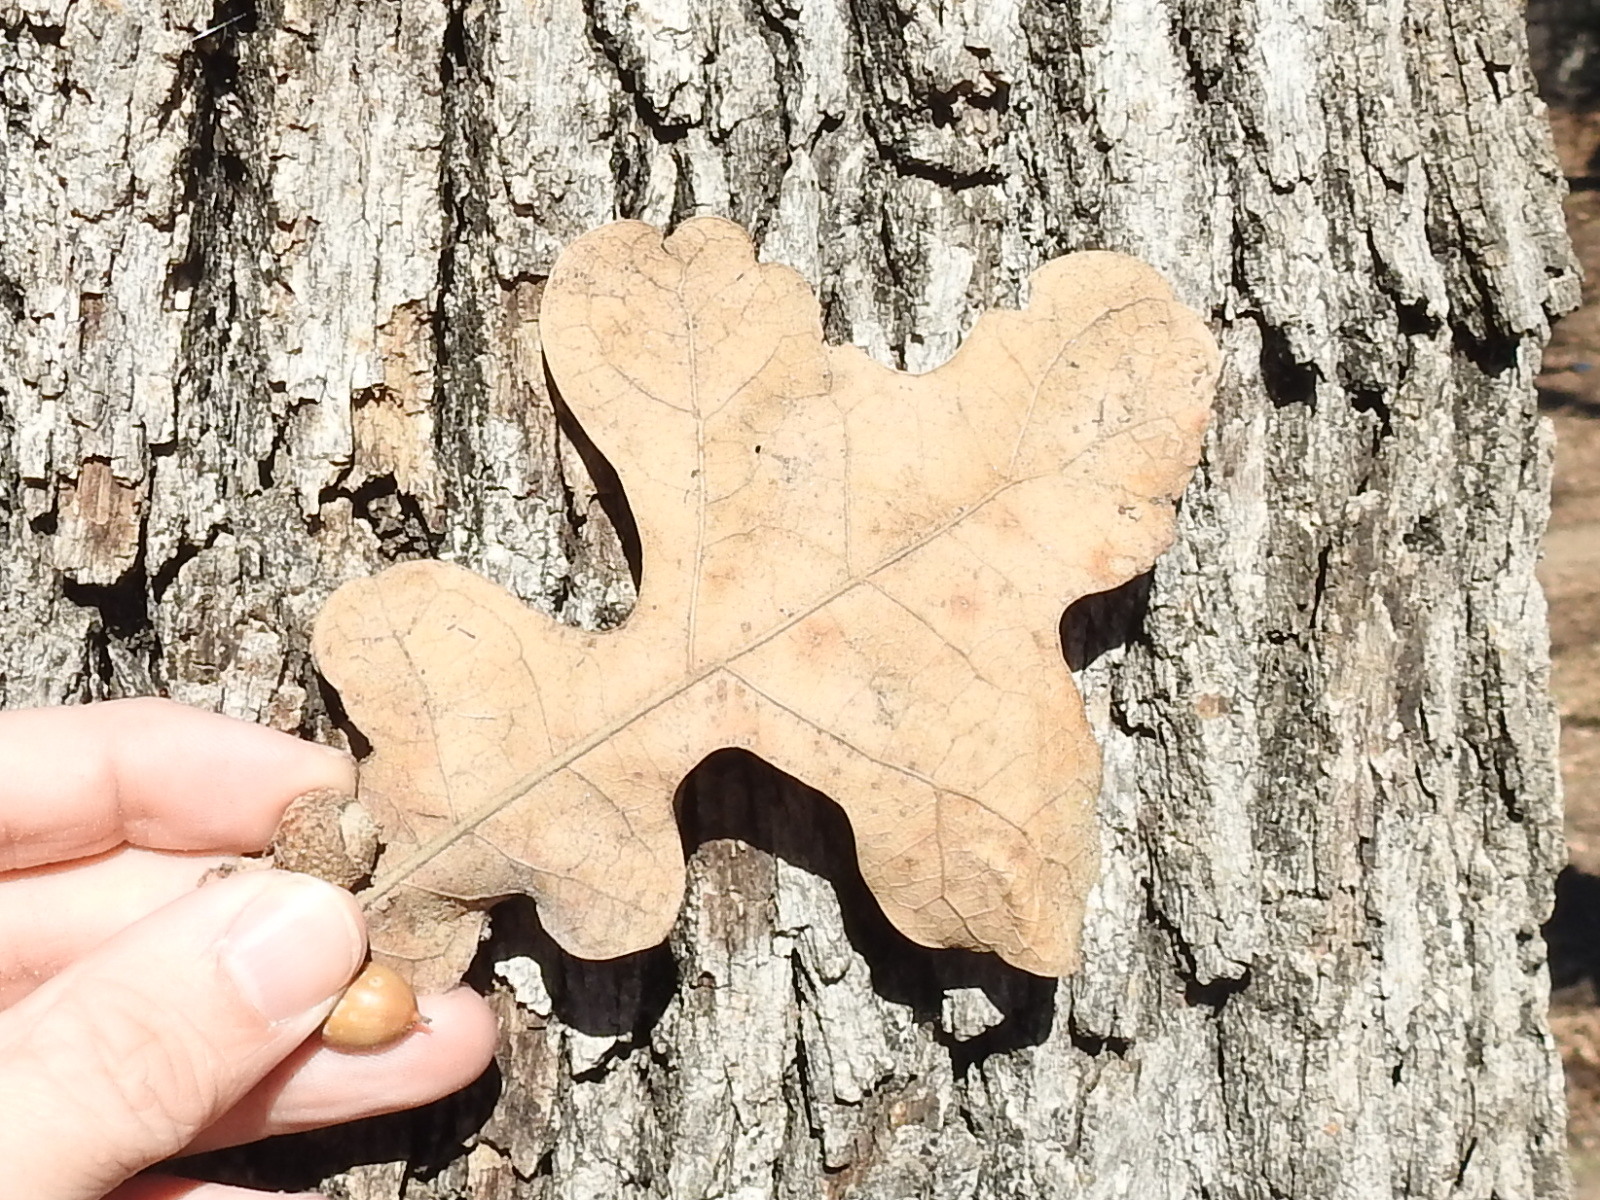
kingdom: Plantae
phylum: Tracheophyta
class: Magnoliopsida
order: Fagales
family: Fagaceae
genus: Quercus
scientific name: Quercus stellata
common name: Post oak
